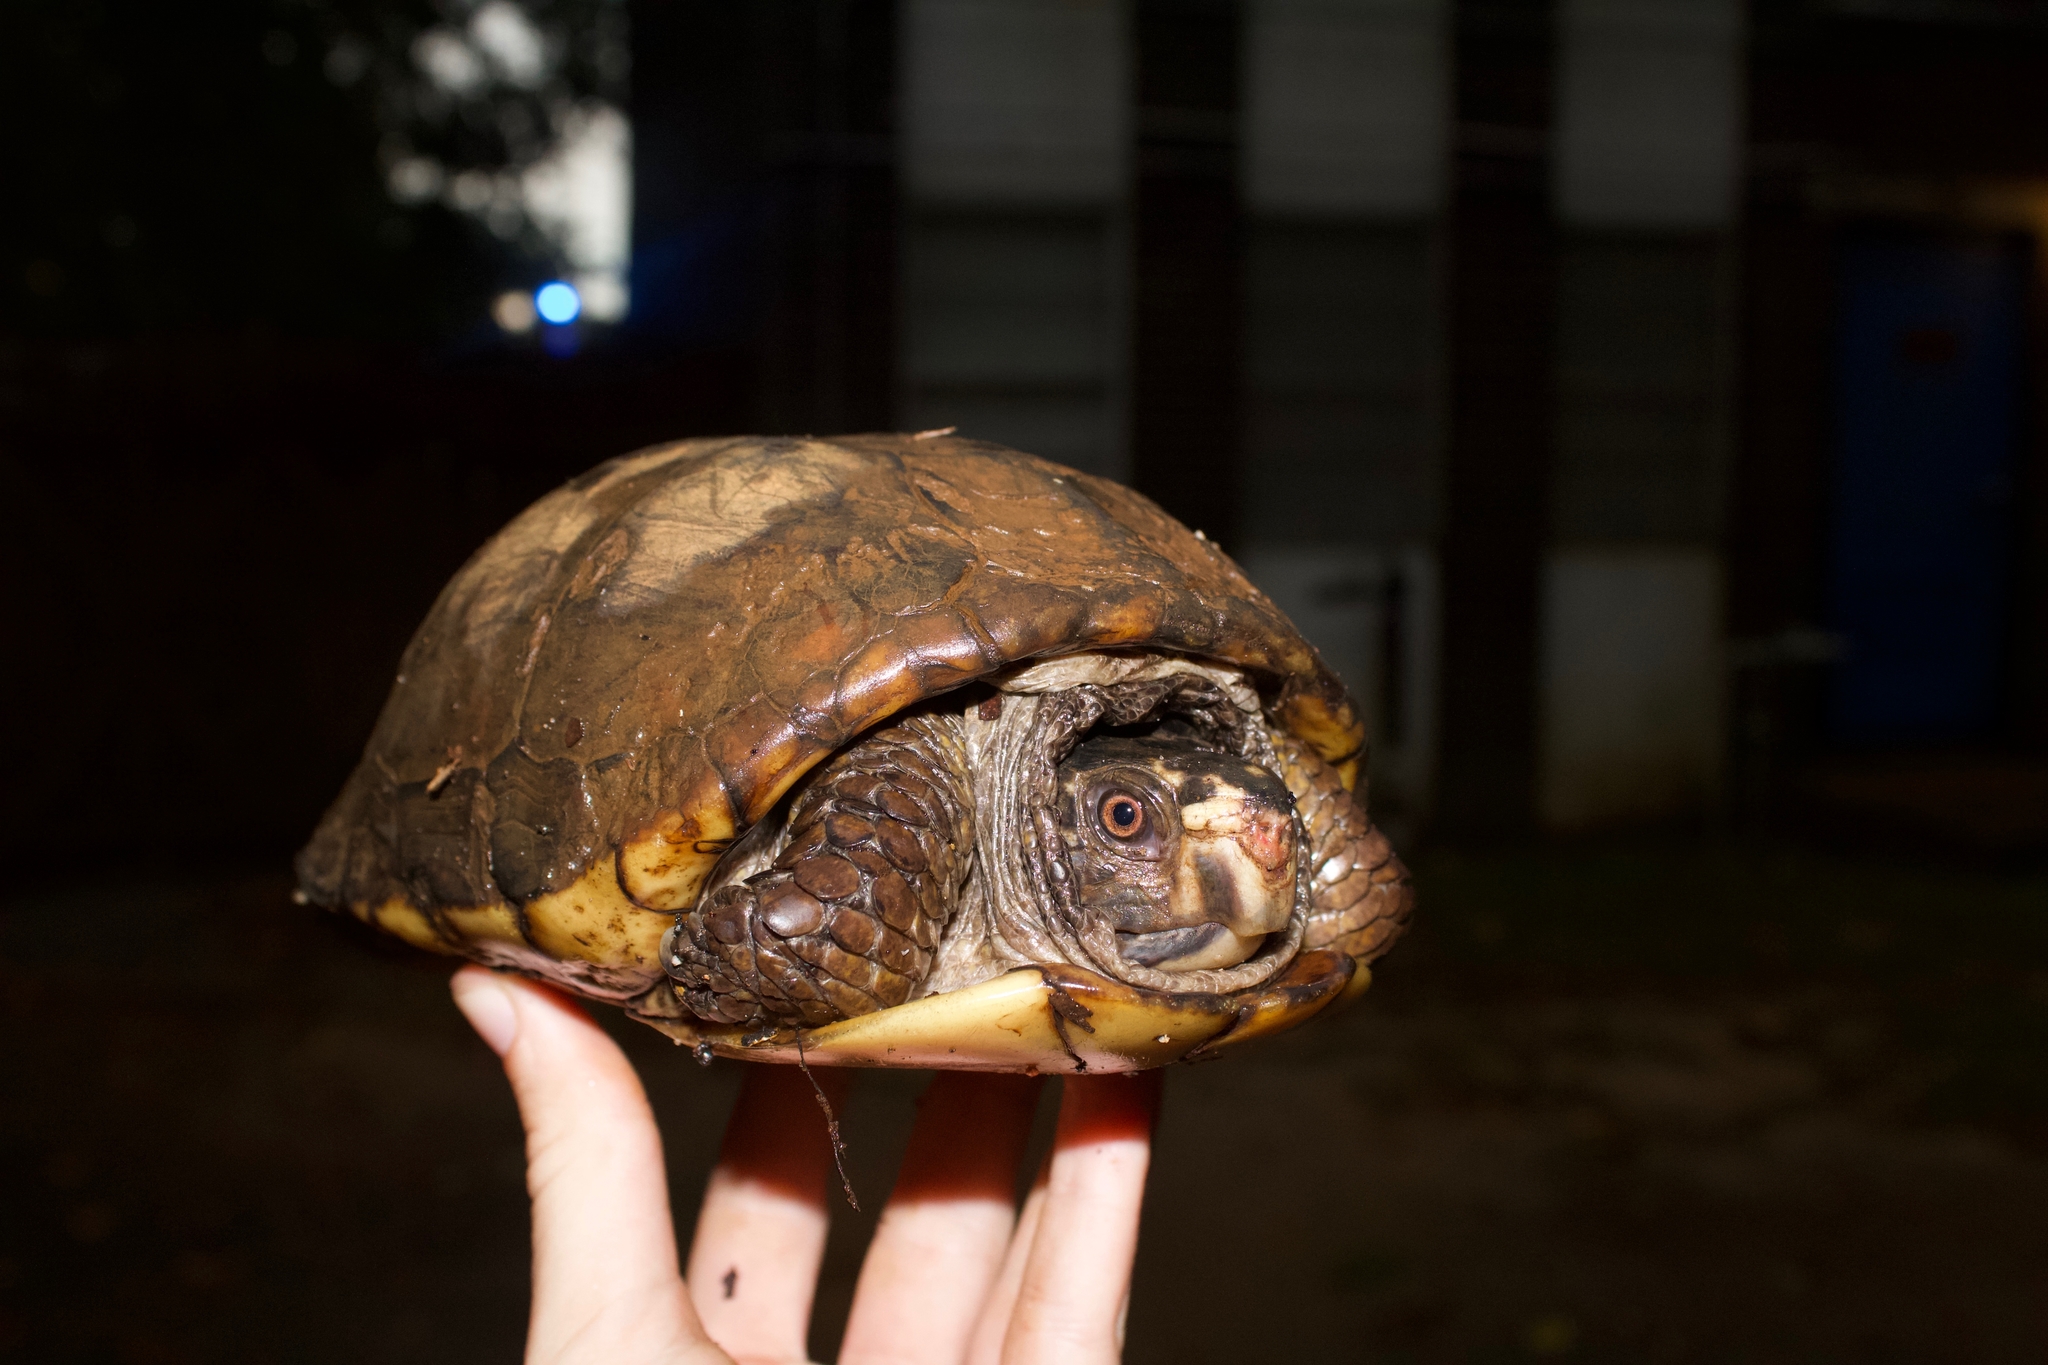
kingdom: Animalia
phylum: Chordata
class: Testudines
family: Emydidae
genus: Terrapene
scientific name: Terrapene carolina
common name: Common box turtle
